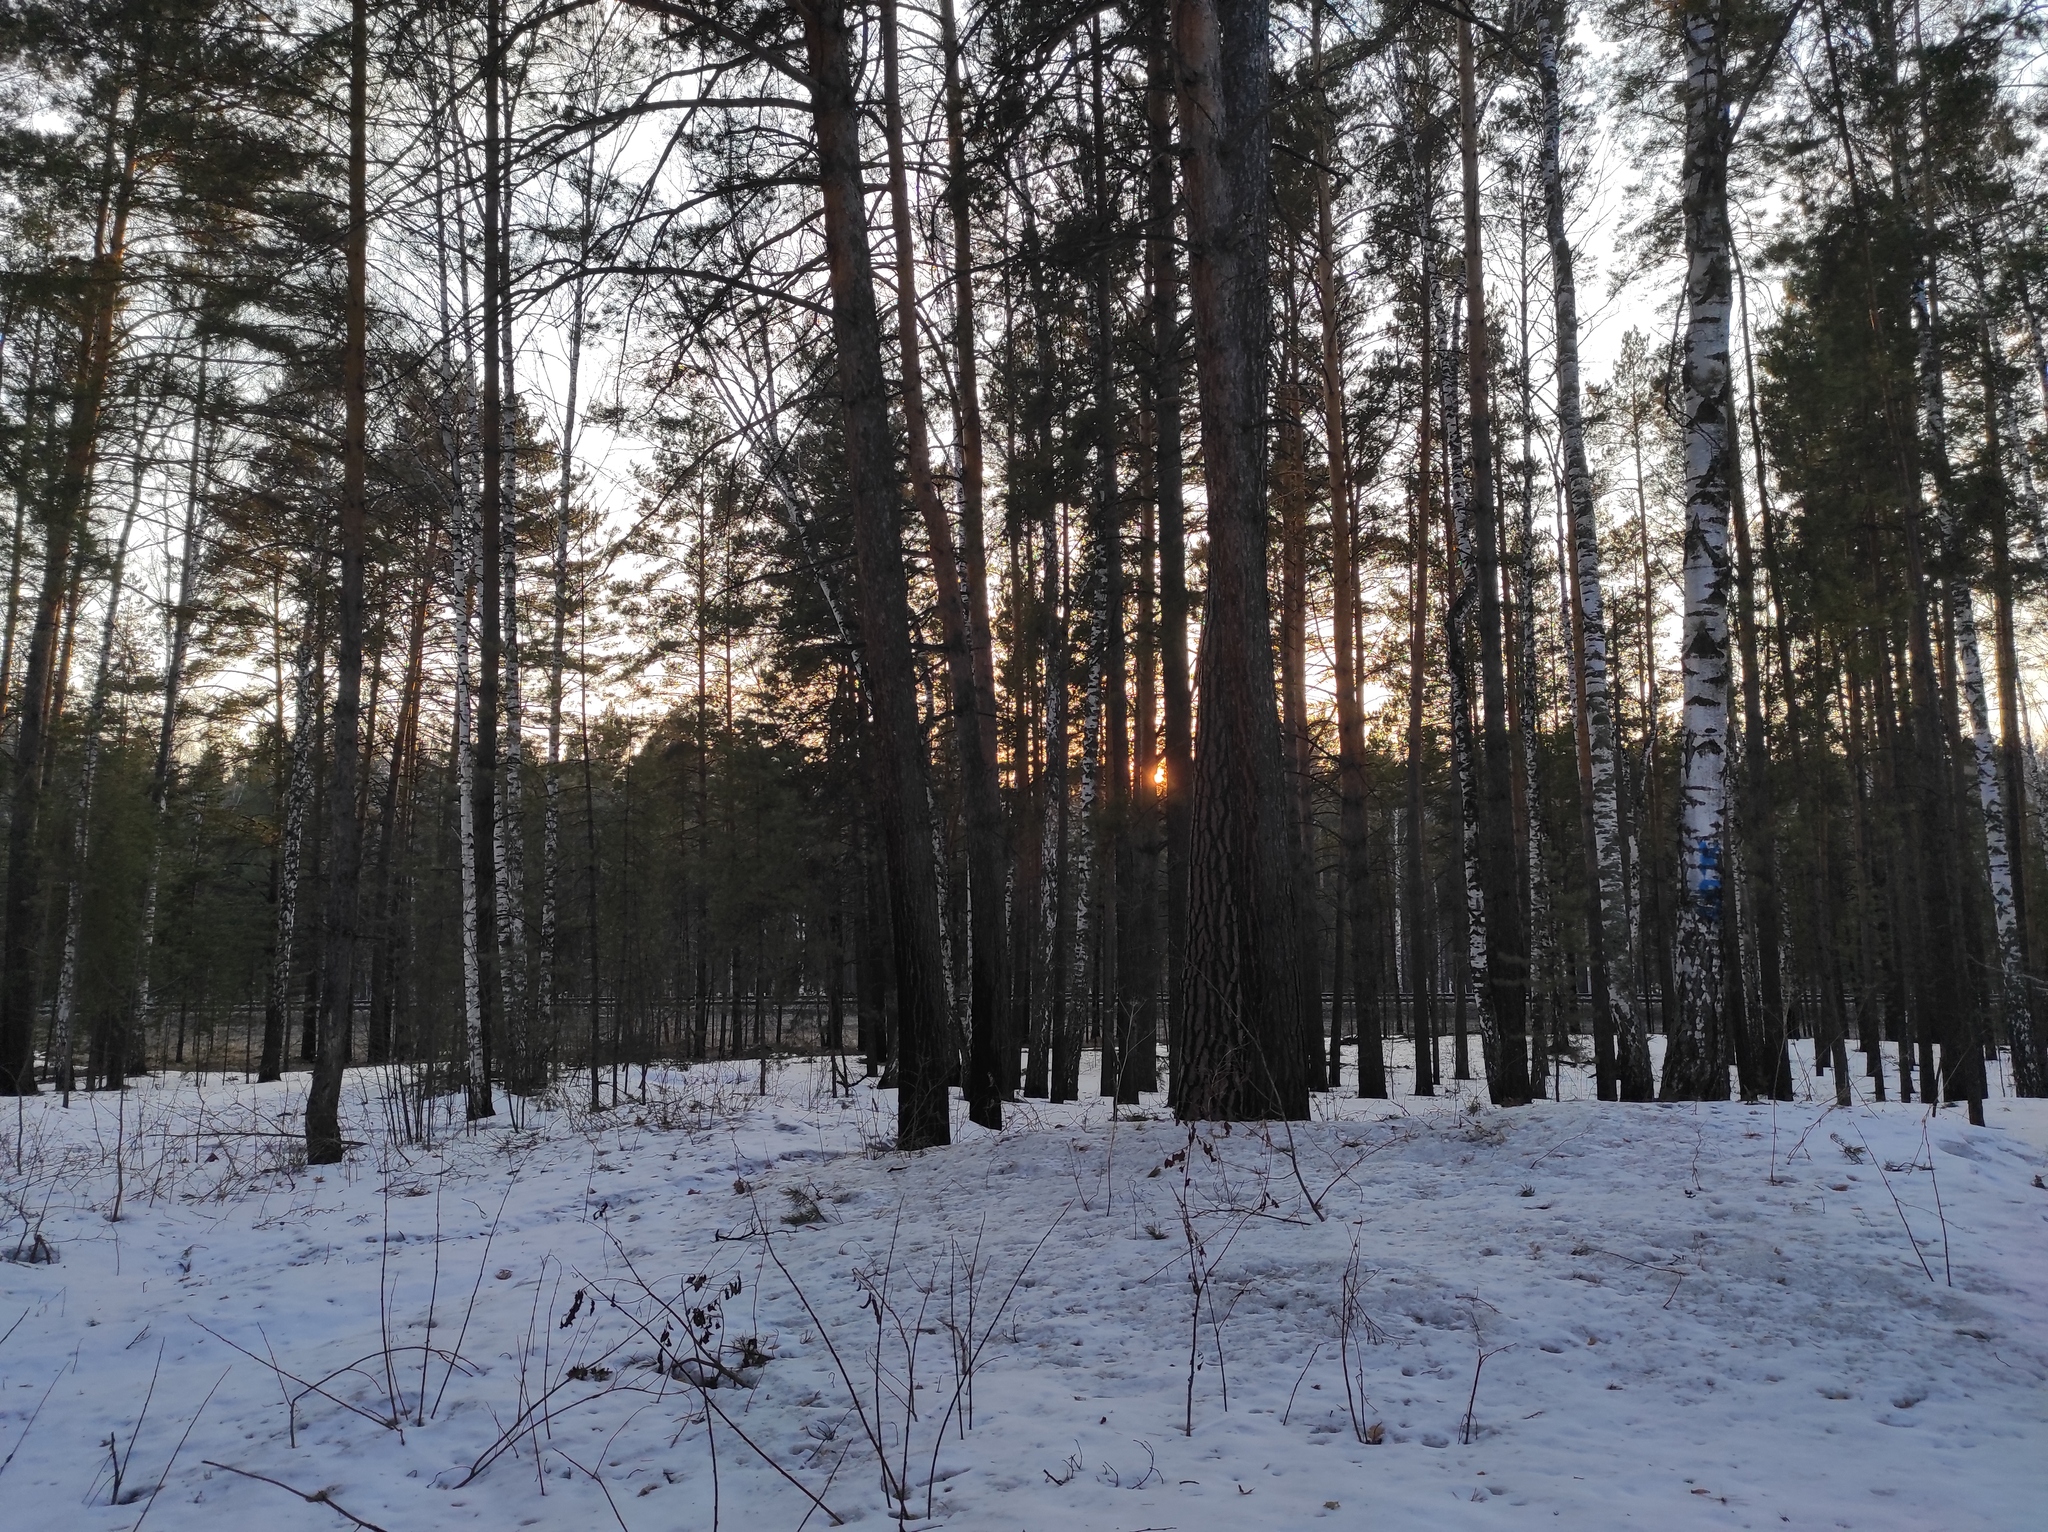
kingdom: Plantae
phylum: Tracheophyta
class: Pinopsida
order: Pinales
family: Pinaceae
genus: Pinus
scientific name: Pinus sylvestris
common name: Scots pine
